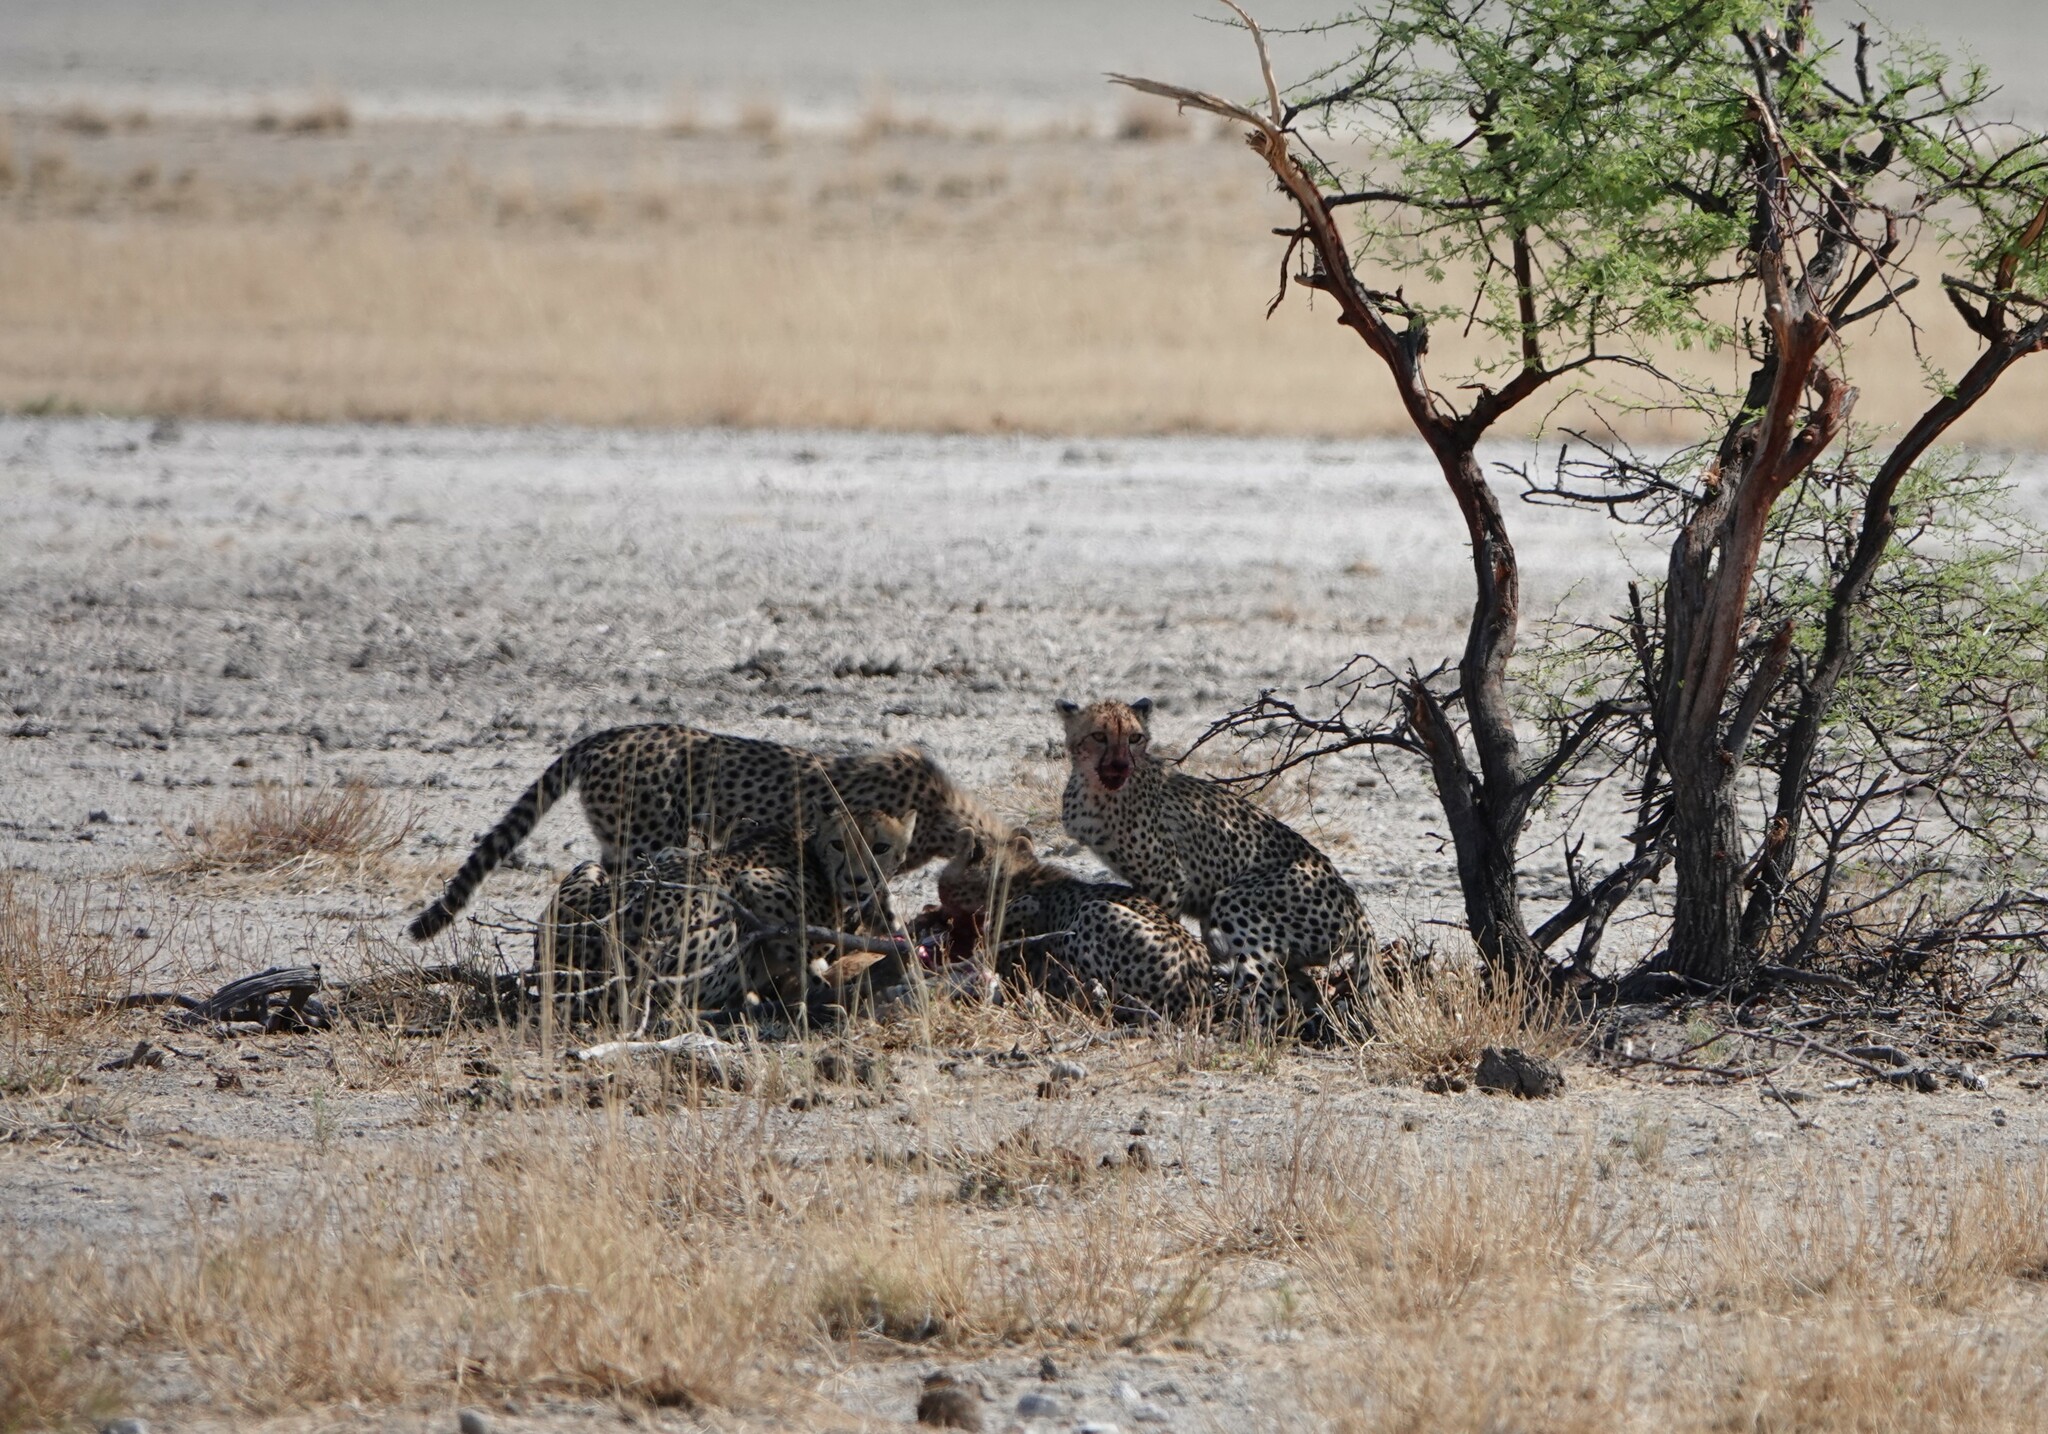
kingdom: Animalia
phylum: Chordata
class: Mammalia
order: Carnivora
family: Felidae
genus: Acinonyx
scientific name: Acinonyx jubatus
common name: Cheetah
